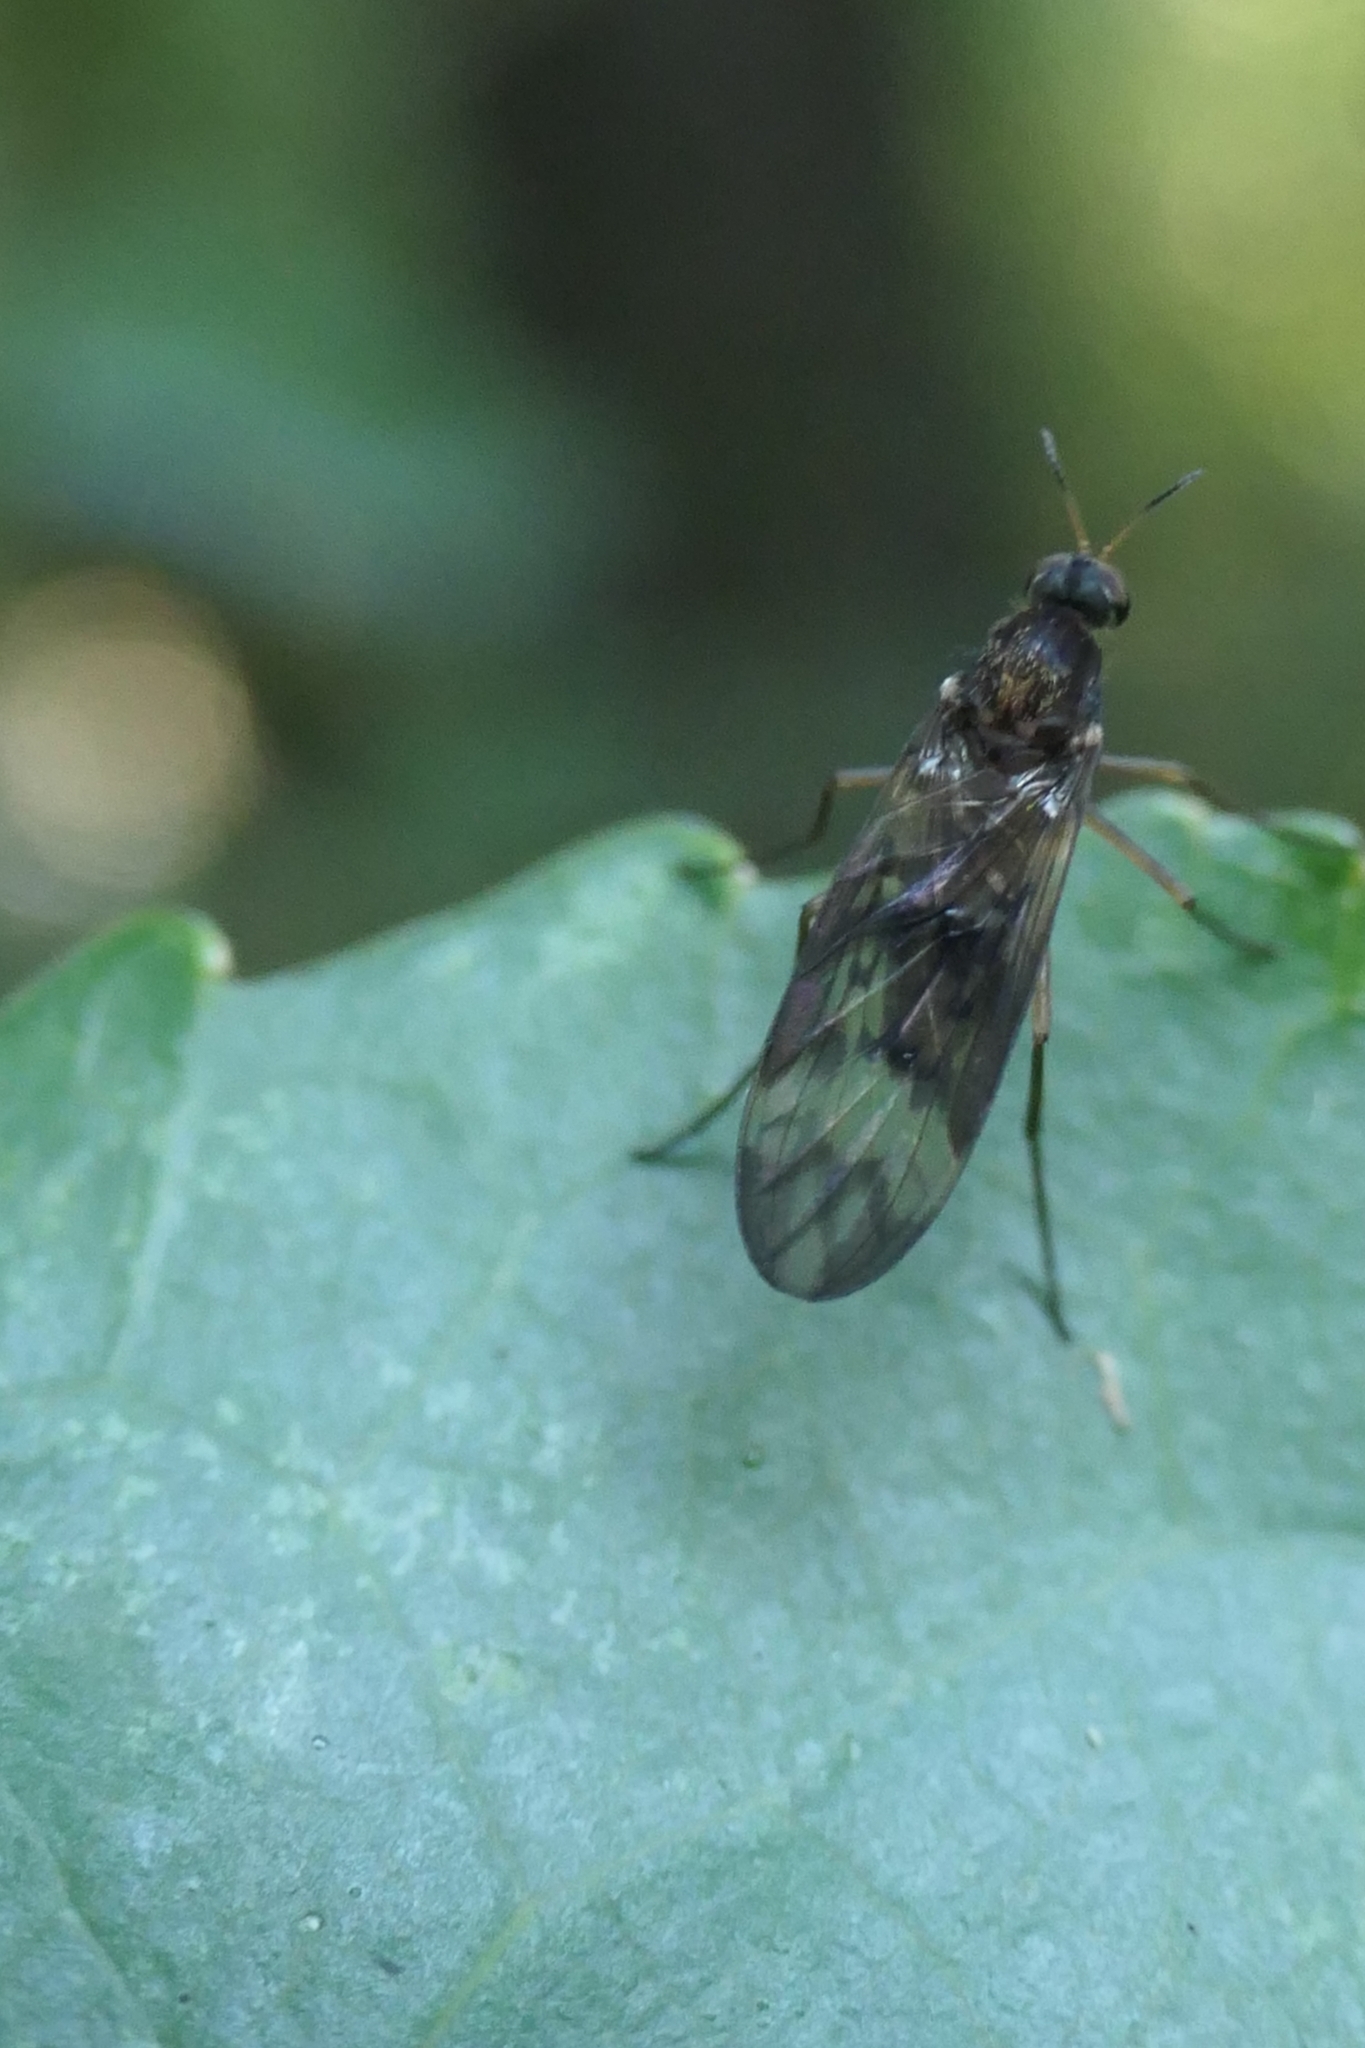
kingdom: Animalia
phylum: Arthropoda
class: Insecta
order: Diptera
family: Anisopodidae
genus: Sylvicola
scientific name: Sylvicola neozelandicus
